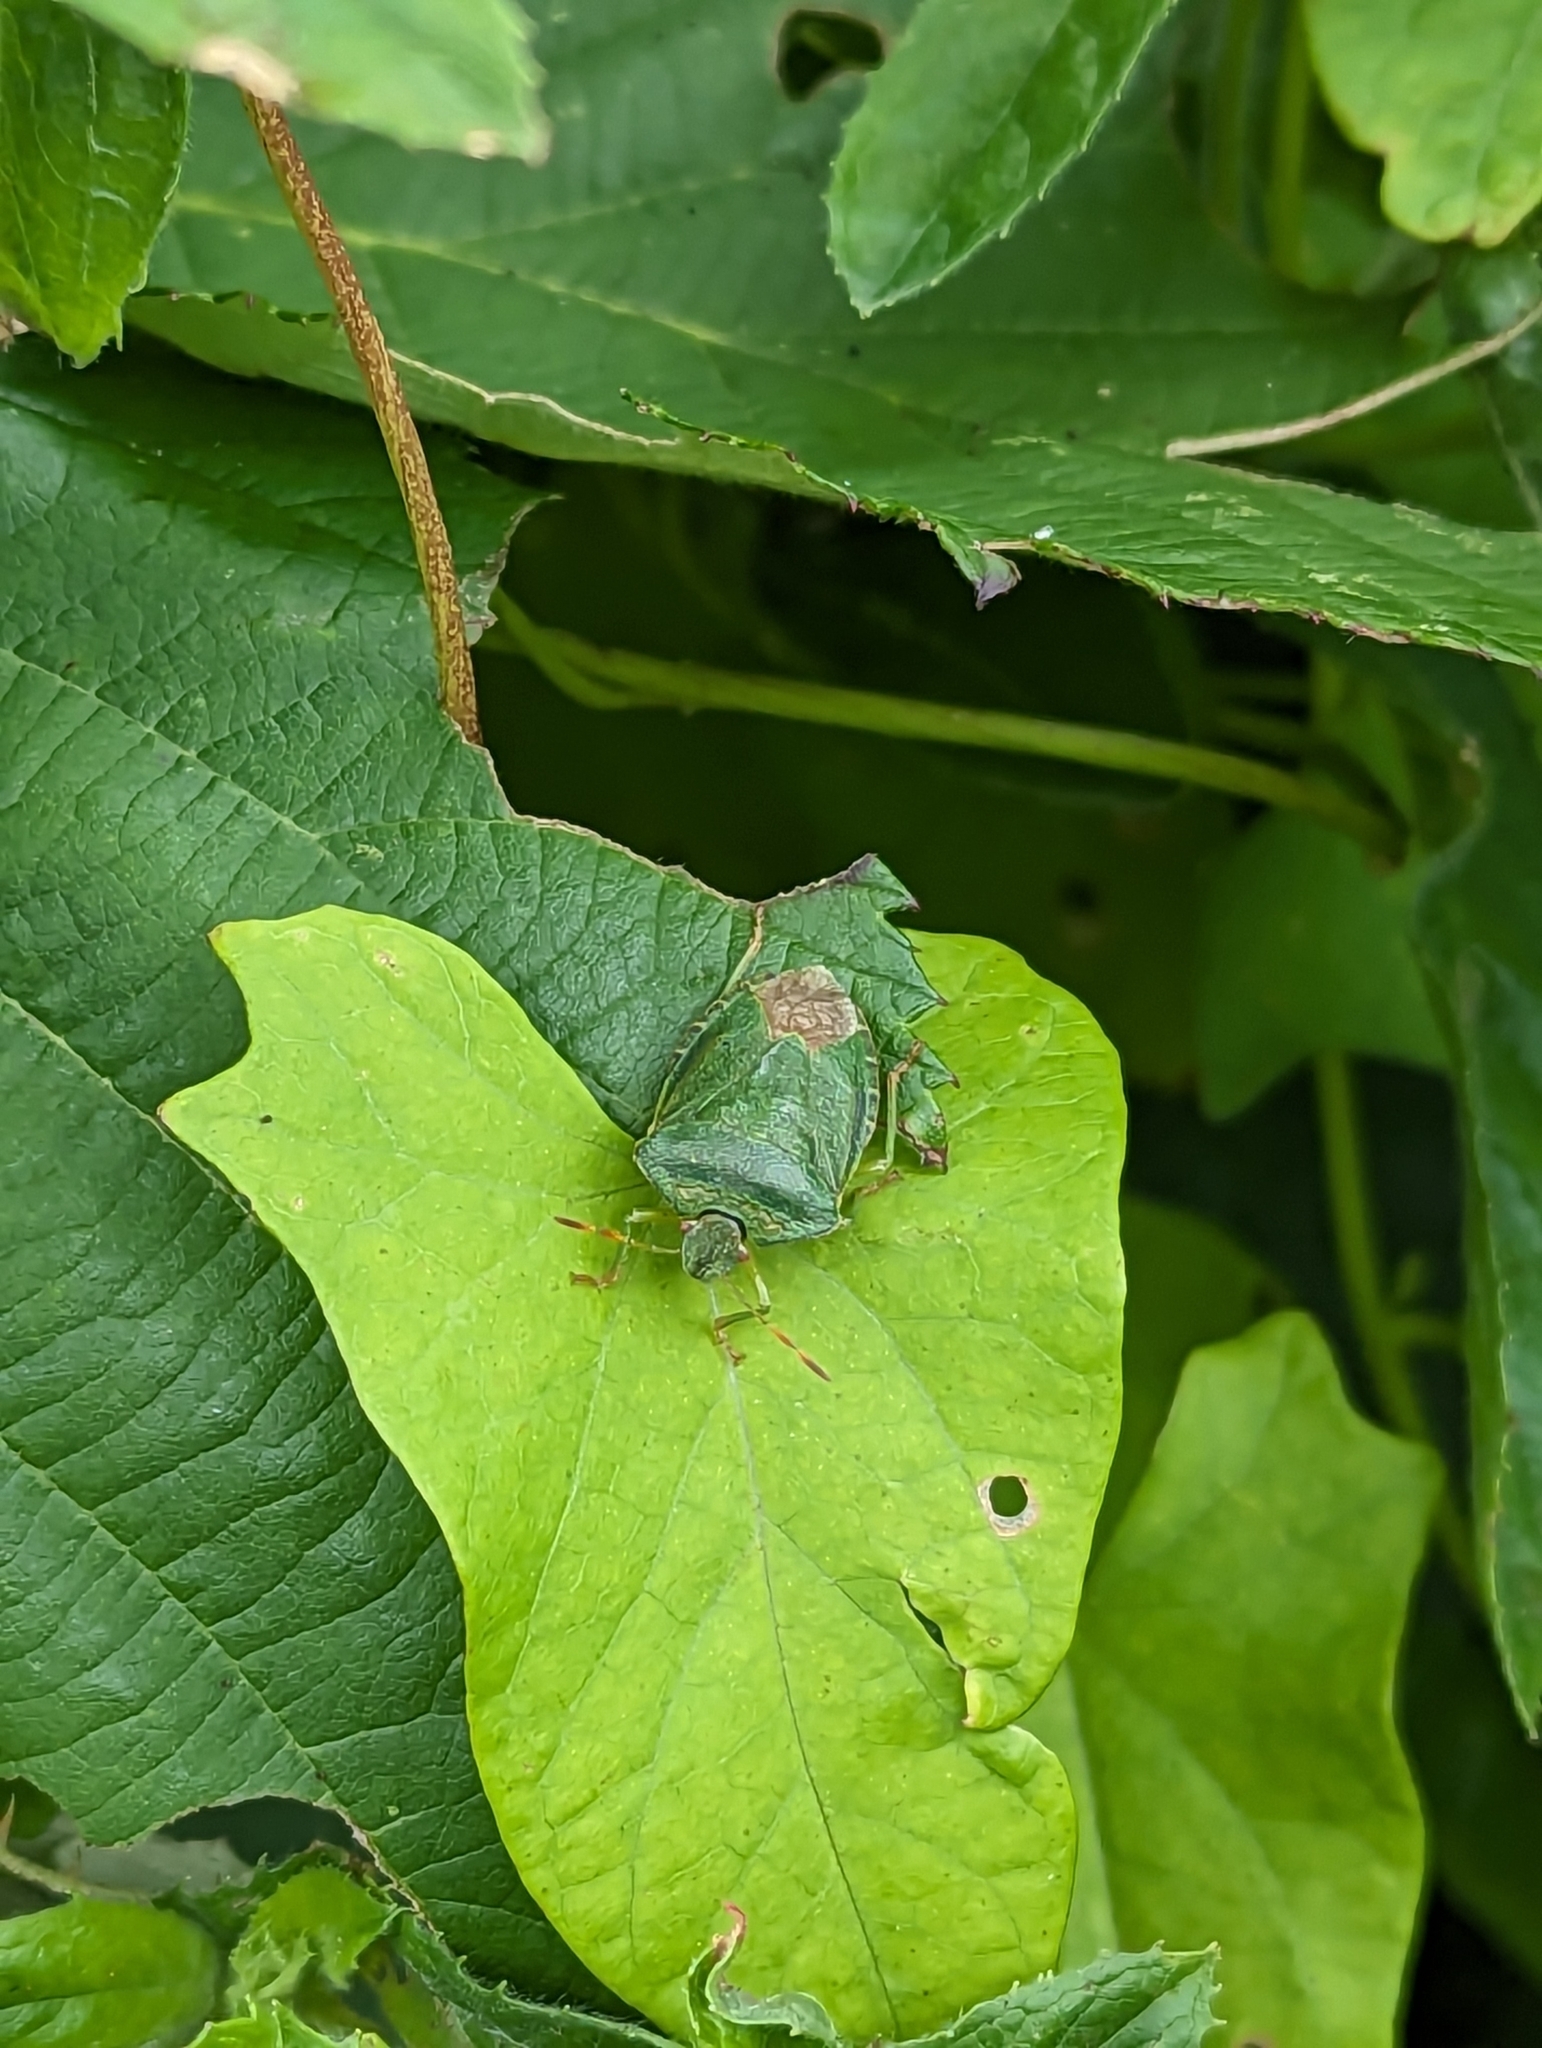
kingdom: Animalia
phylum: Arthropoda
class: Insecta
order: Hemiptera
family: Pentatomidae
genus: Palomena
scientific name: Palomena prasina
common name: Green shieldbug
